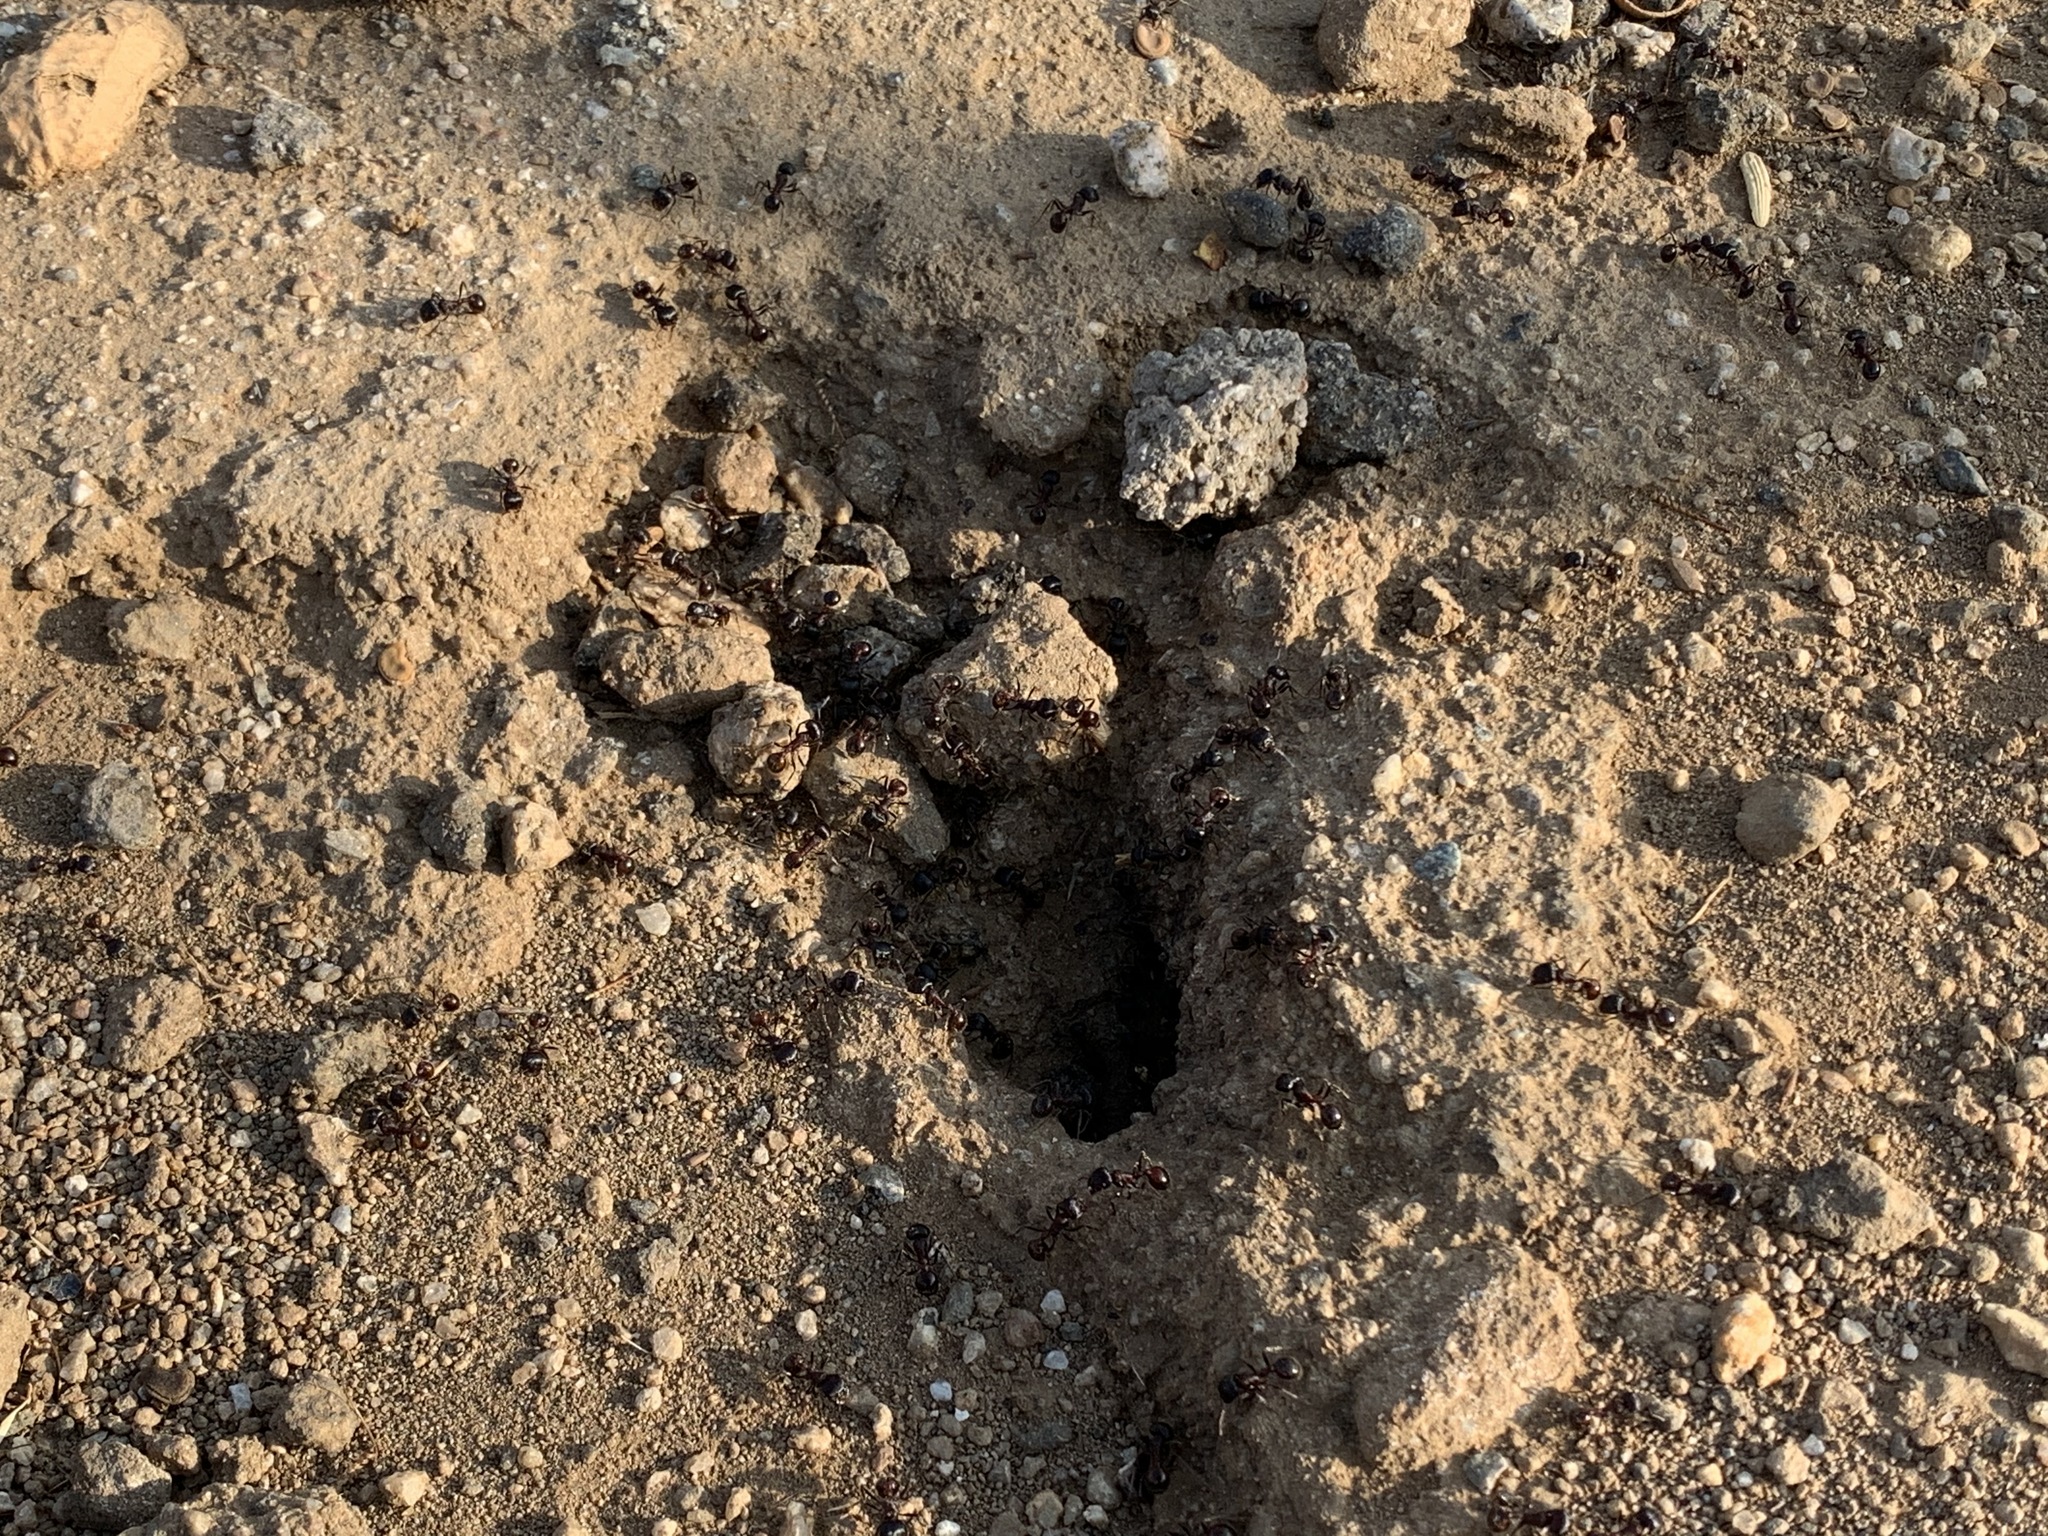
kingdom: Animalia
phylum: Arthropoda
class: Insecta
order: Hymenoptera
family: Formicidae
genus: Pogonomyrmex
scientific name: Pogonomyrmex rugosus
